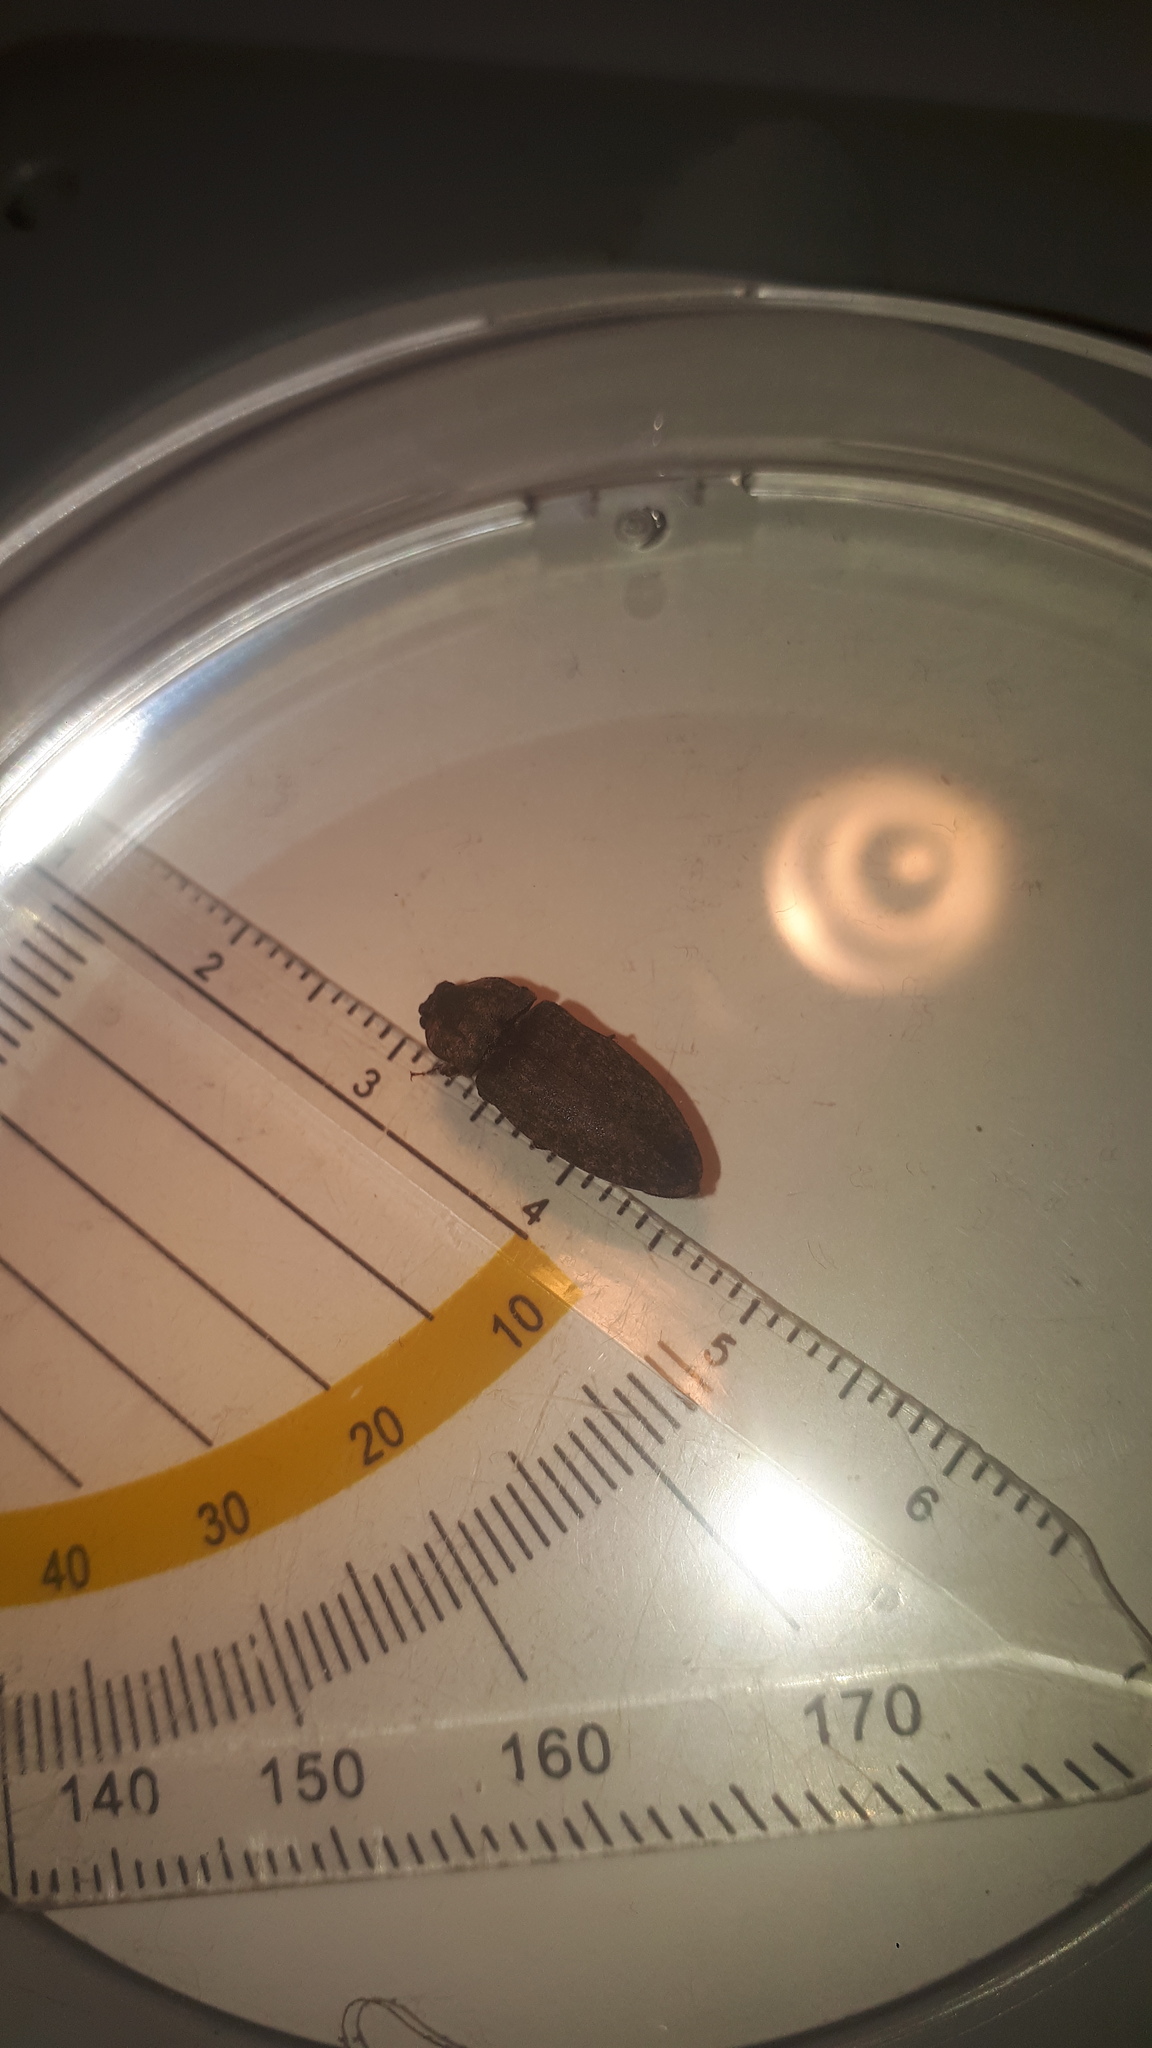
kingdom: Animalia
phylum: Arthropoda
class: Insecta
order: Coleoptera
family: Elateridae
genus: Agrypnus
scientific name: Agrypnus murinus
